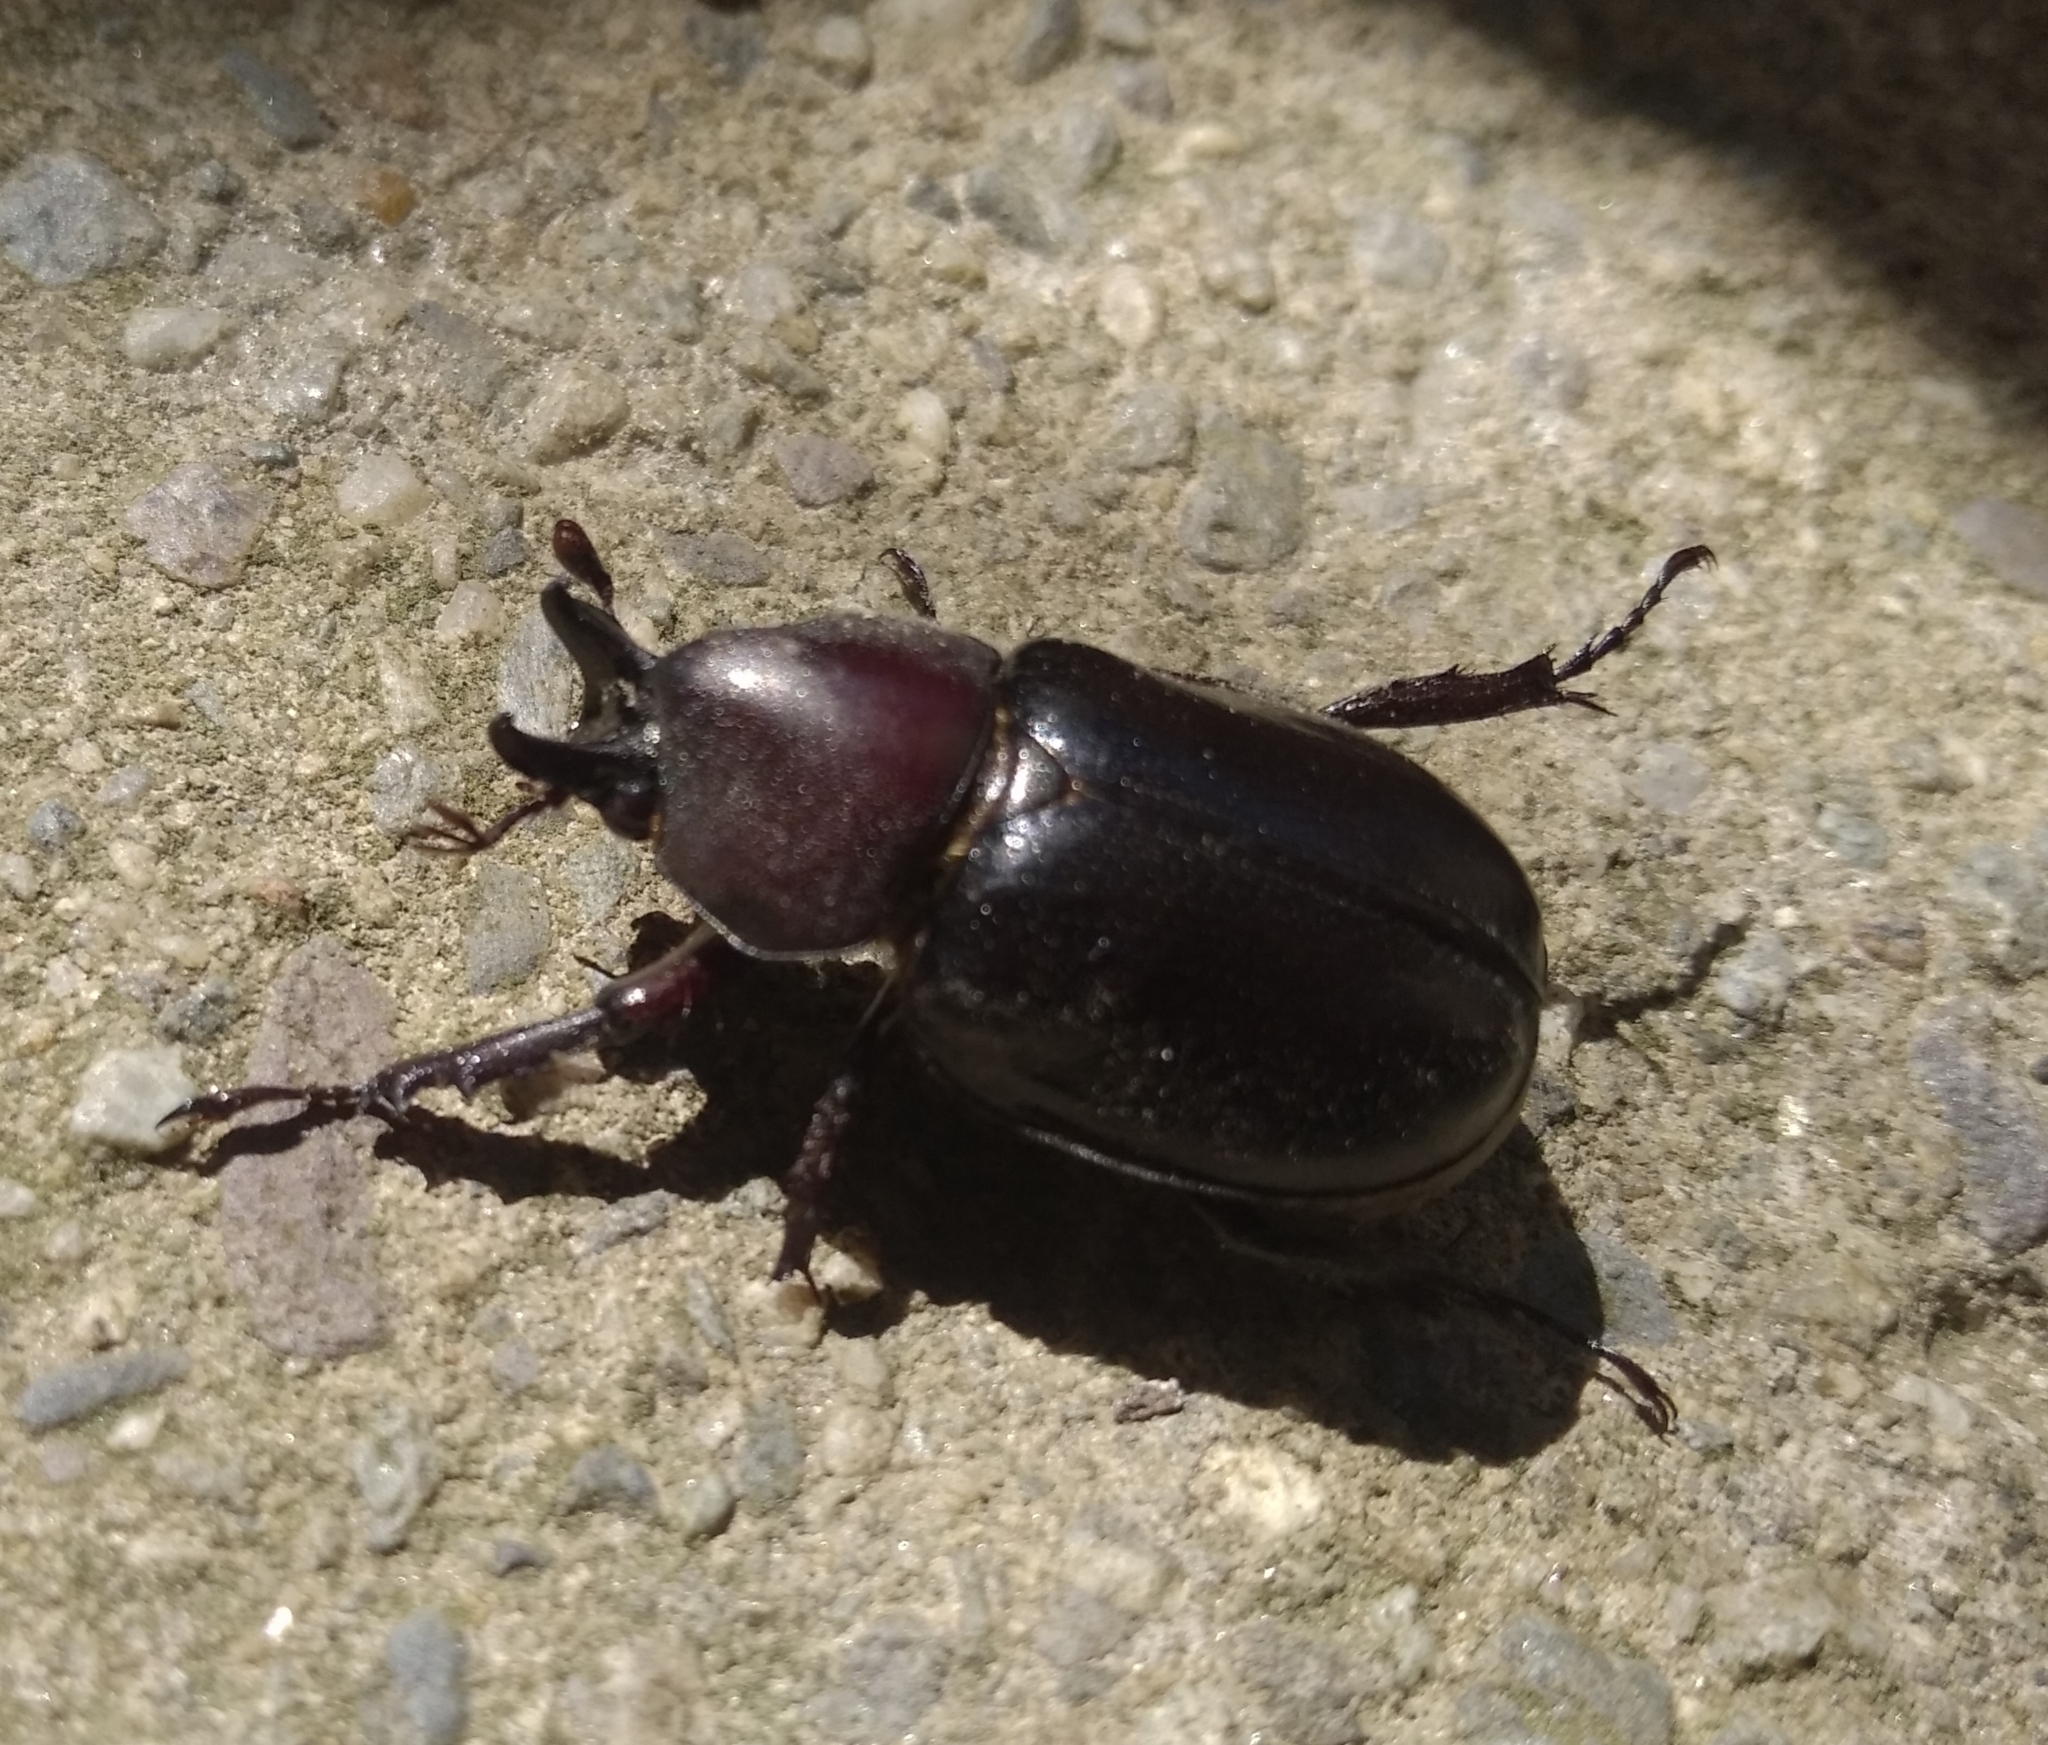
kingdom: Animalia
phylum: Arthropoda
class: Insecta
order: Coleoptera
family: Scarabaeidae
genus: Aegopsis
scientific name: Aegopsis curvicornis
